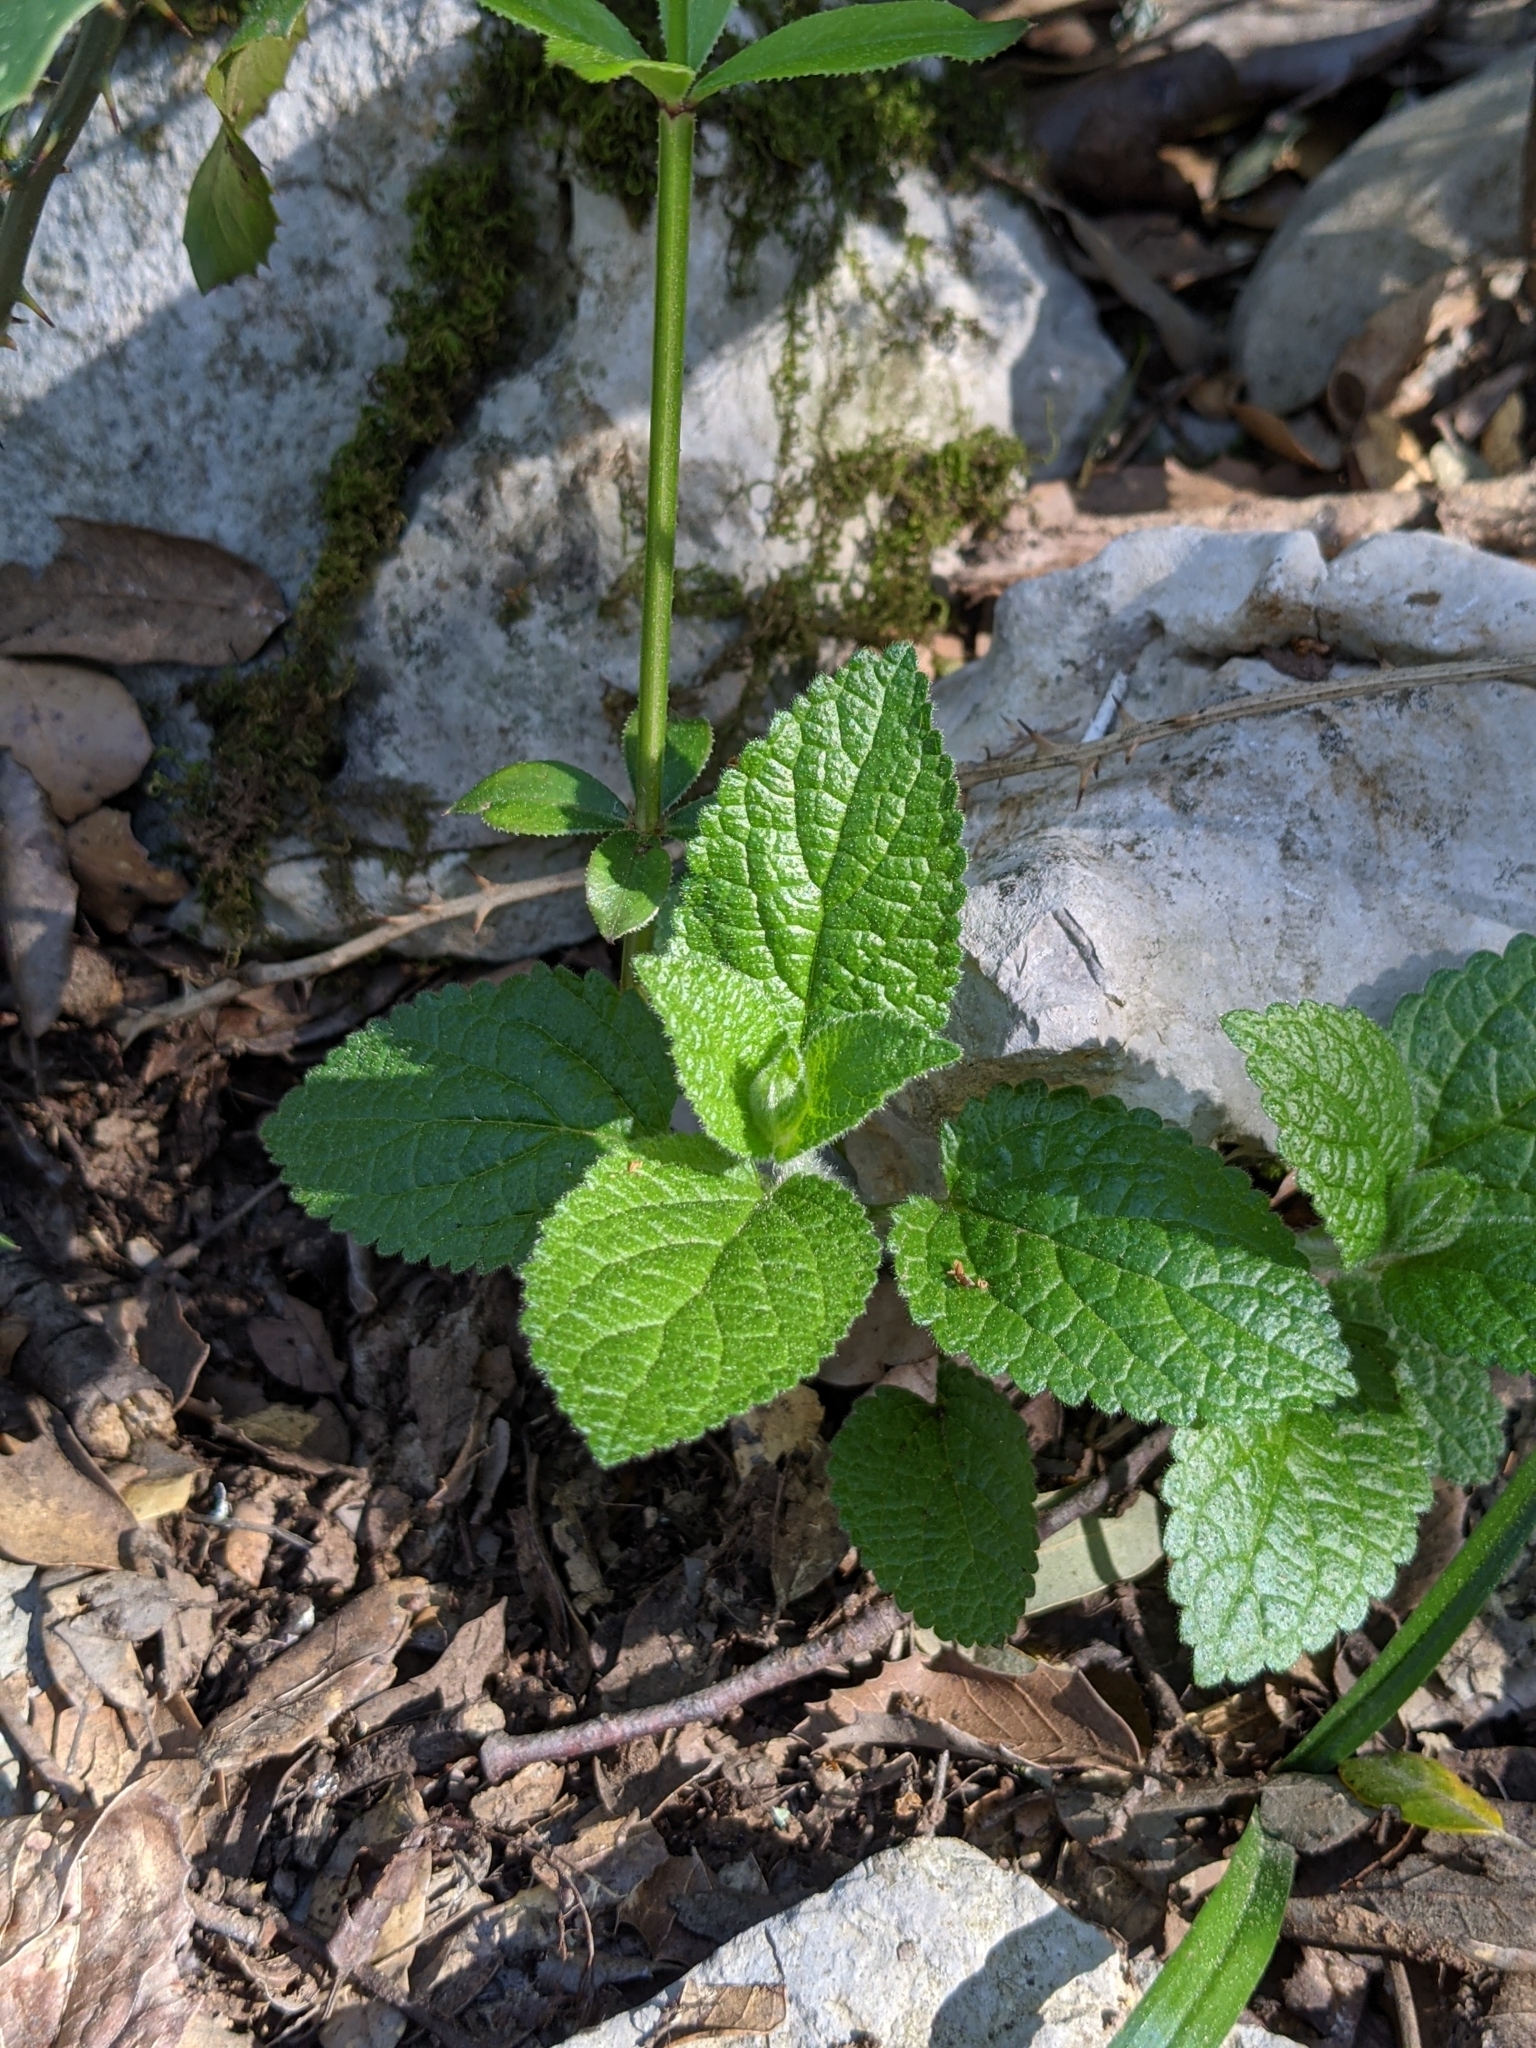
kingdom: Plantae
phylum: Tracheophyta
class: Magnoliopsida
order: Lamiales
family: Lamiaceae
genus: Melittis
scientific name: Melittis melissophyllum
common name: Bastard balm
